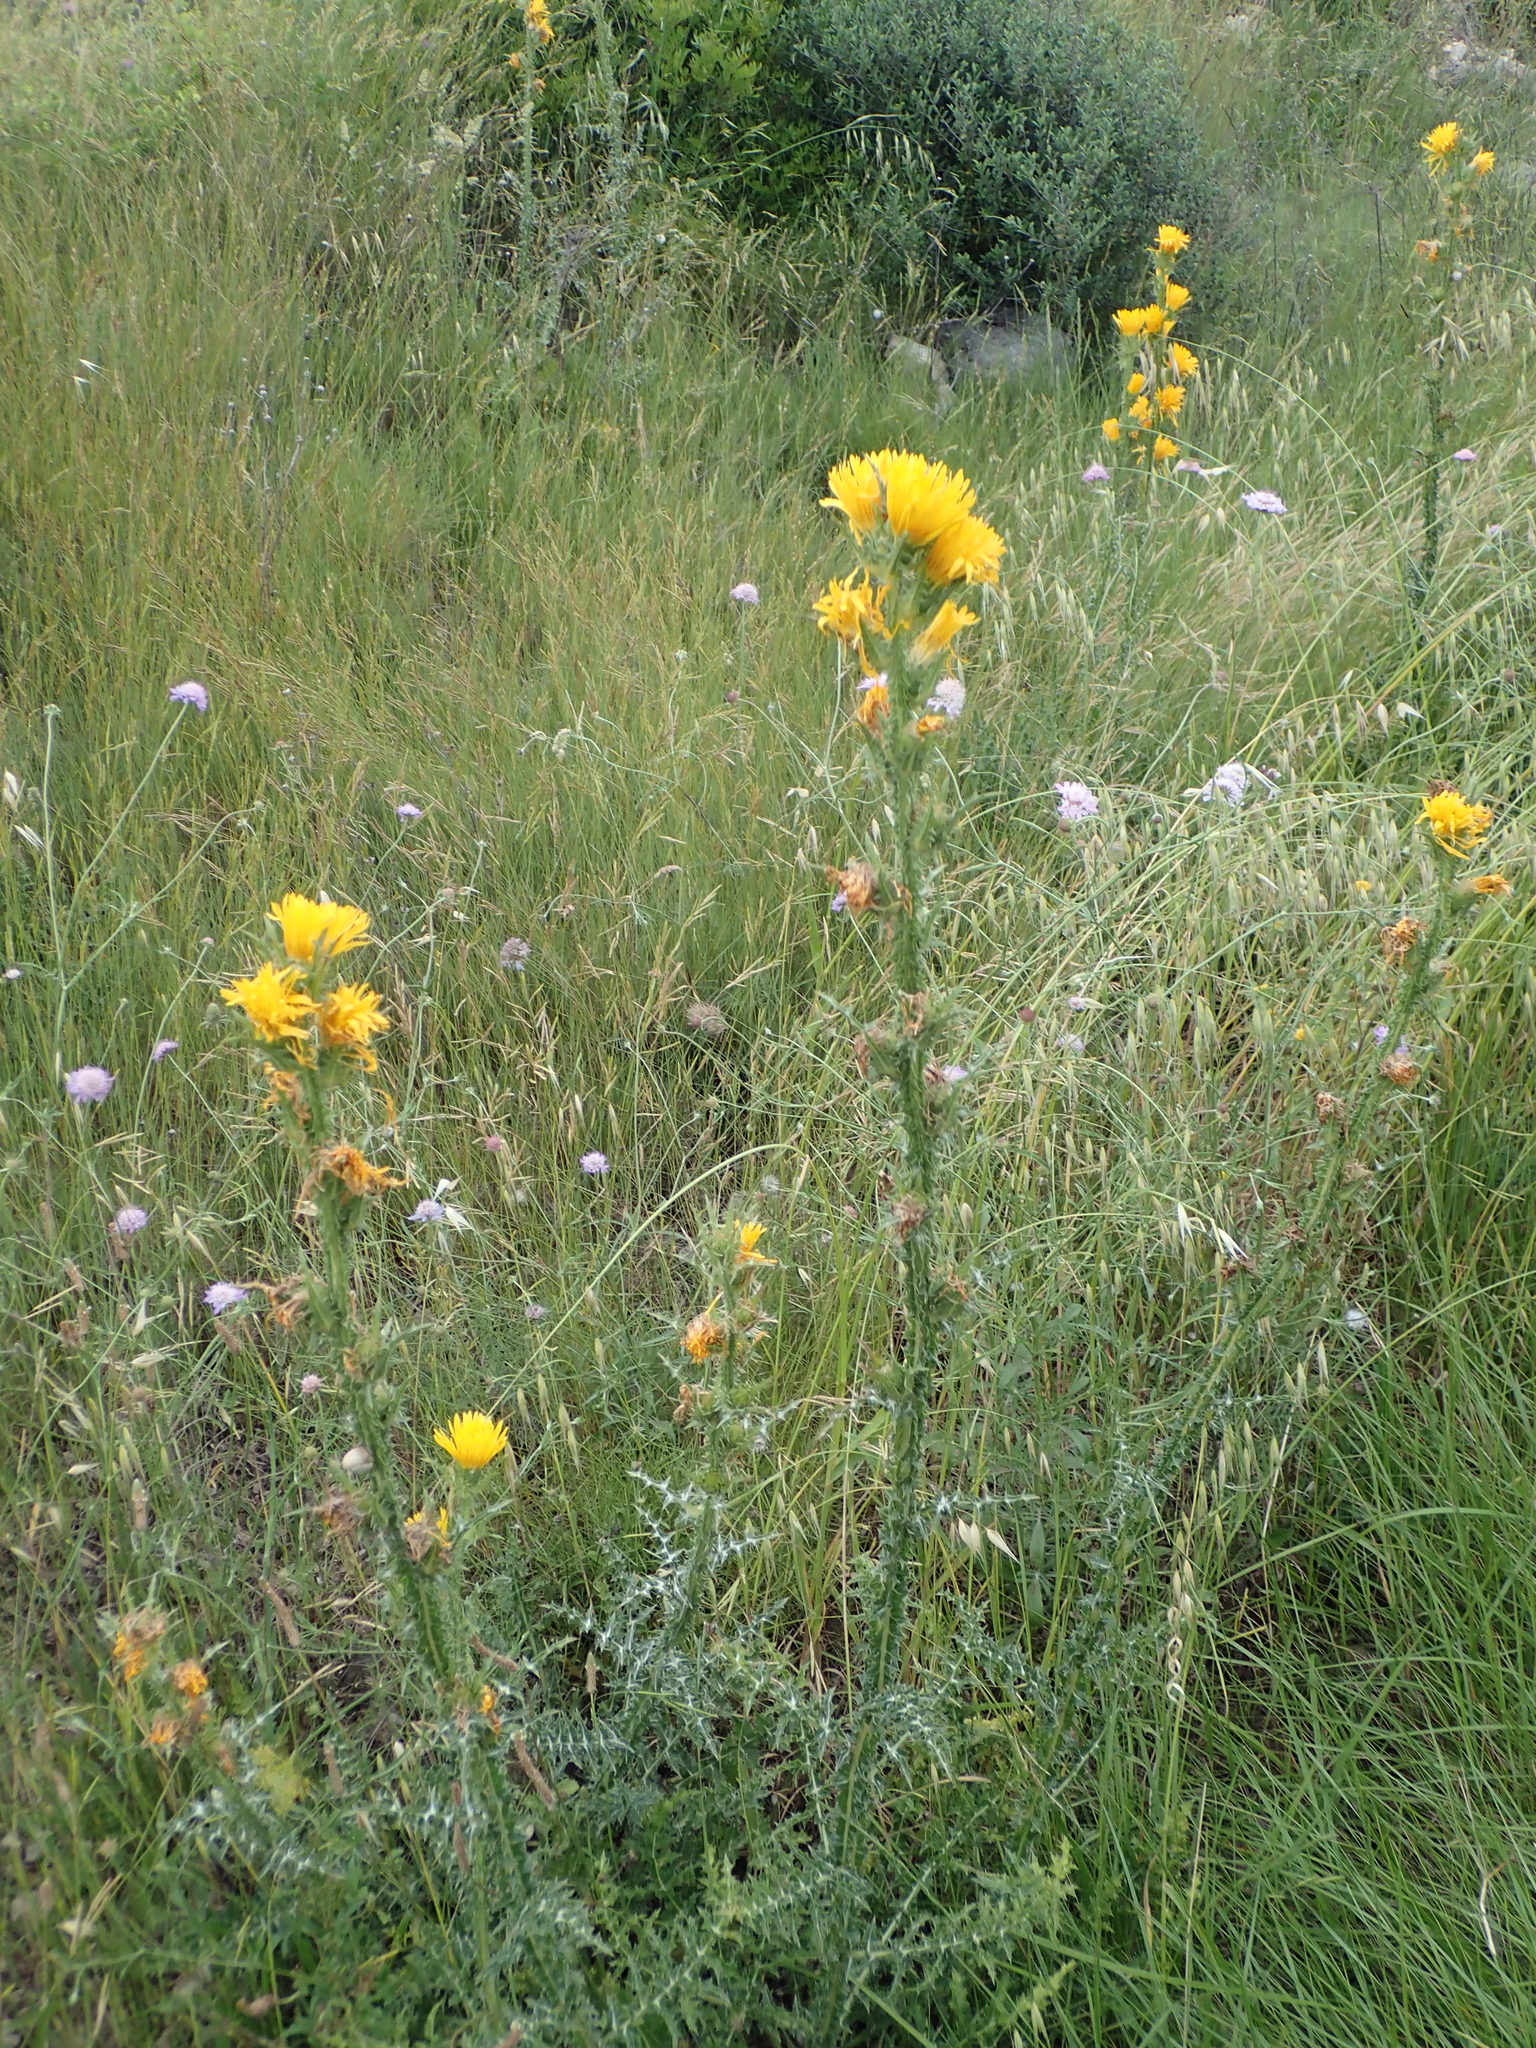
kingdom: Plantae
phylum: Tracheophyta
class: Magnoliopsida
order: Asterales
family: Asteraceae
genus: Scolymus
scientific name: Scolymus grandiflorus
